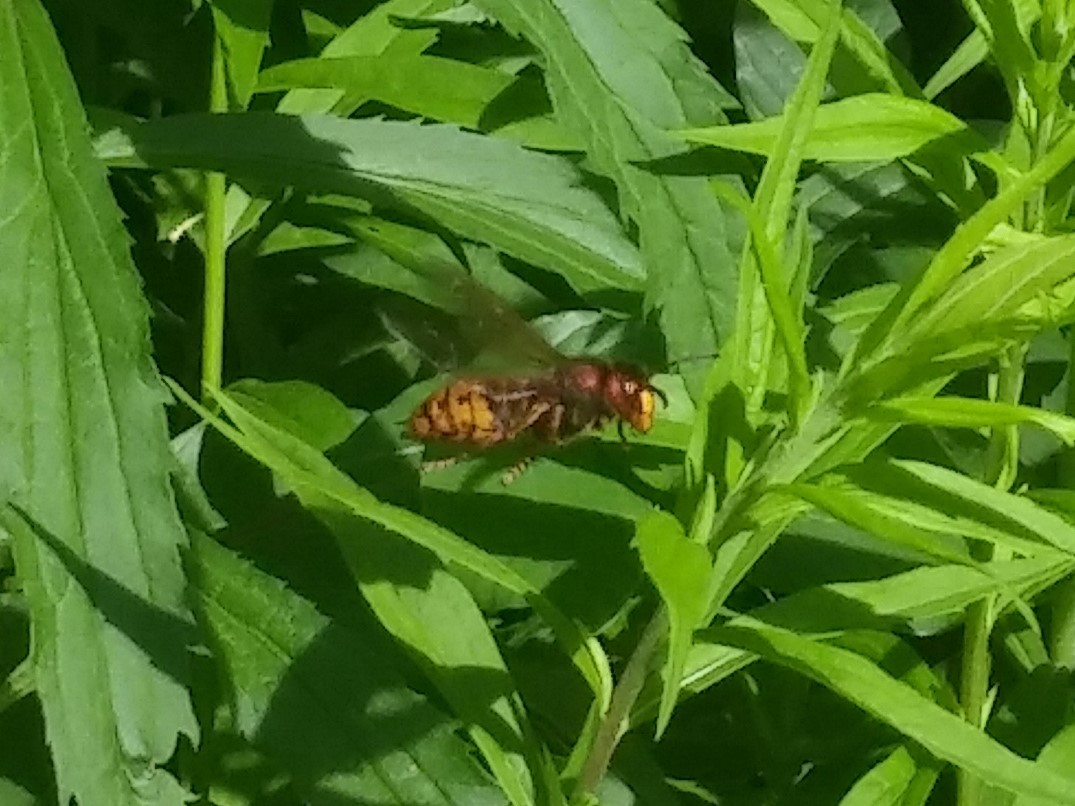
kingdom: Animalia
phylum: Arthropoda
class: Insecta
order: Hymenoptera
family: Vespidae
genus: Vespa
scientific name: Vespa crabro
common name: Hornet
